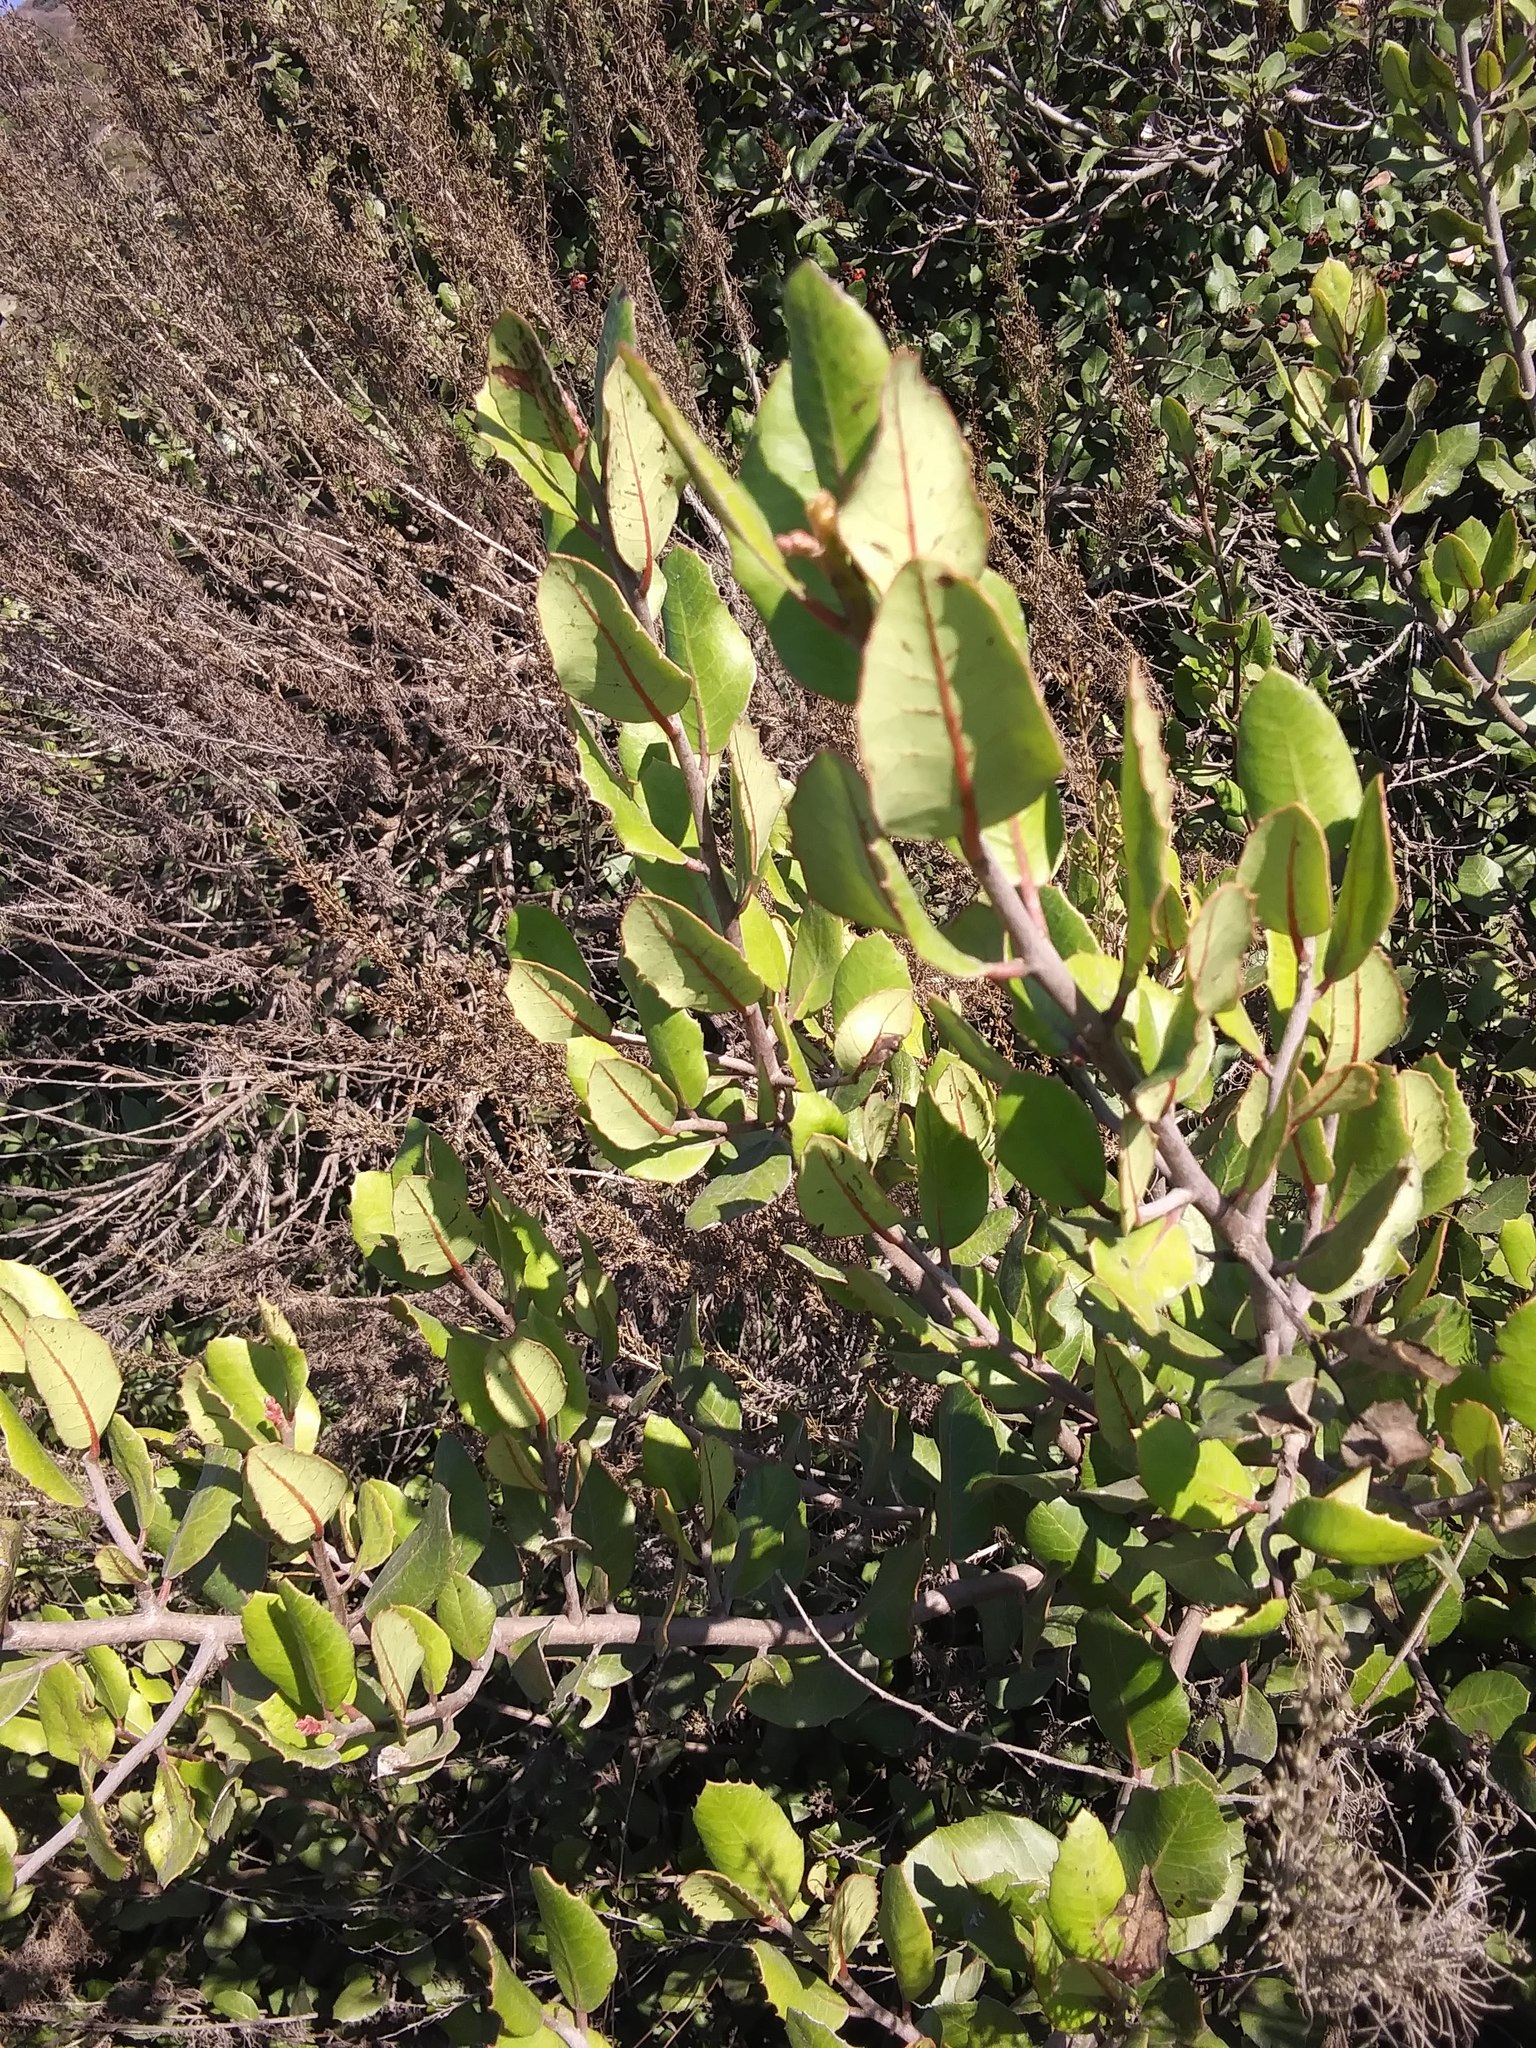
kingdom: Plantae
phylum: Tracheophyta
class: Magnoliopsida
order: Sapindales
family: Anacardiaceae
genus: Rhus
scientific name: Rhus integrifolia
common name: Lemonade sumac
